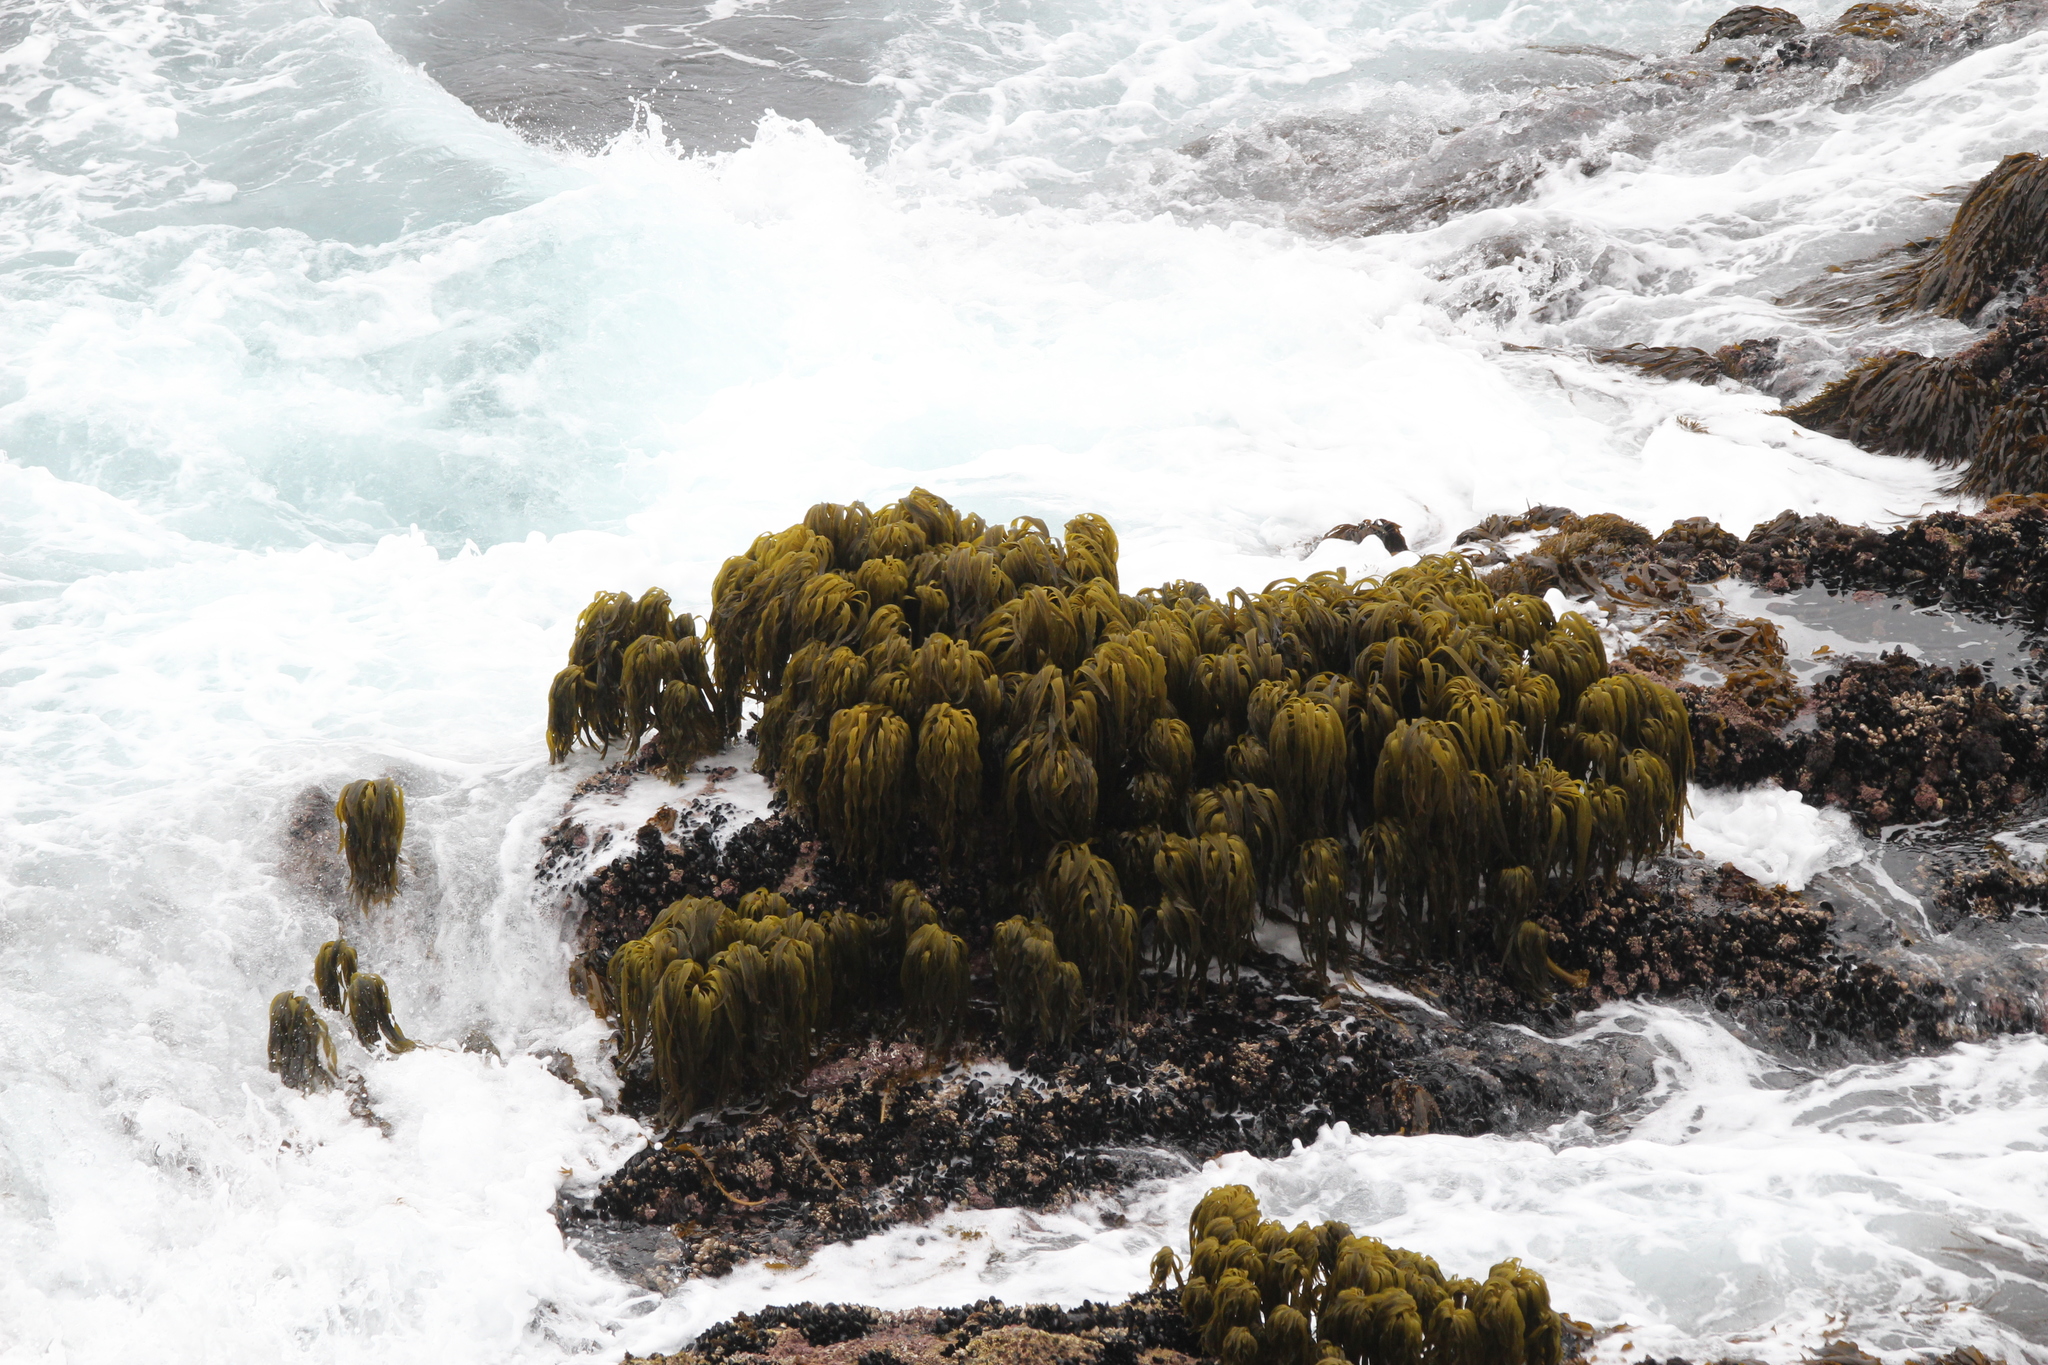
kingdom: Chromista
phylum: Ochrophyta
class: Phaeophyceae
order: Laminariales
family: Laminariaceae
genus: Postelsia
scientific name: Postelsia palmiformis
